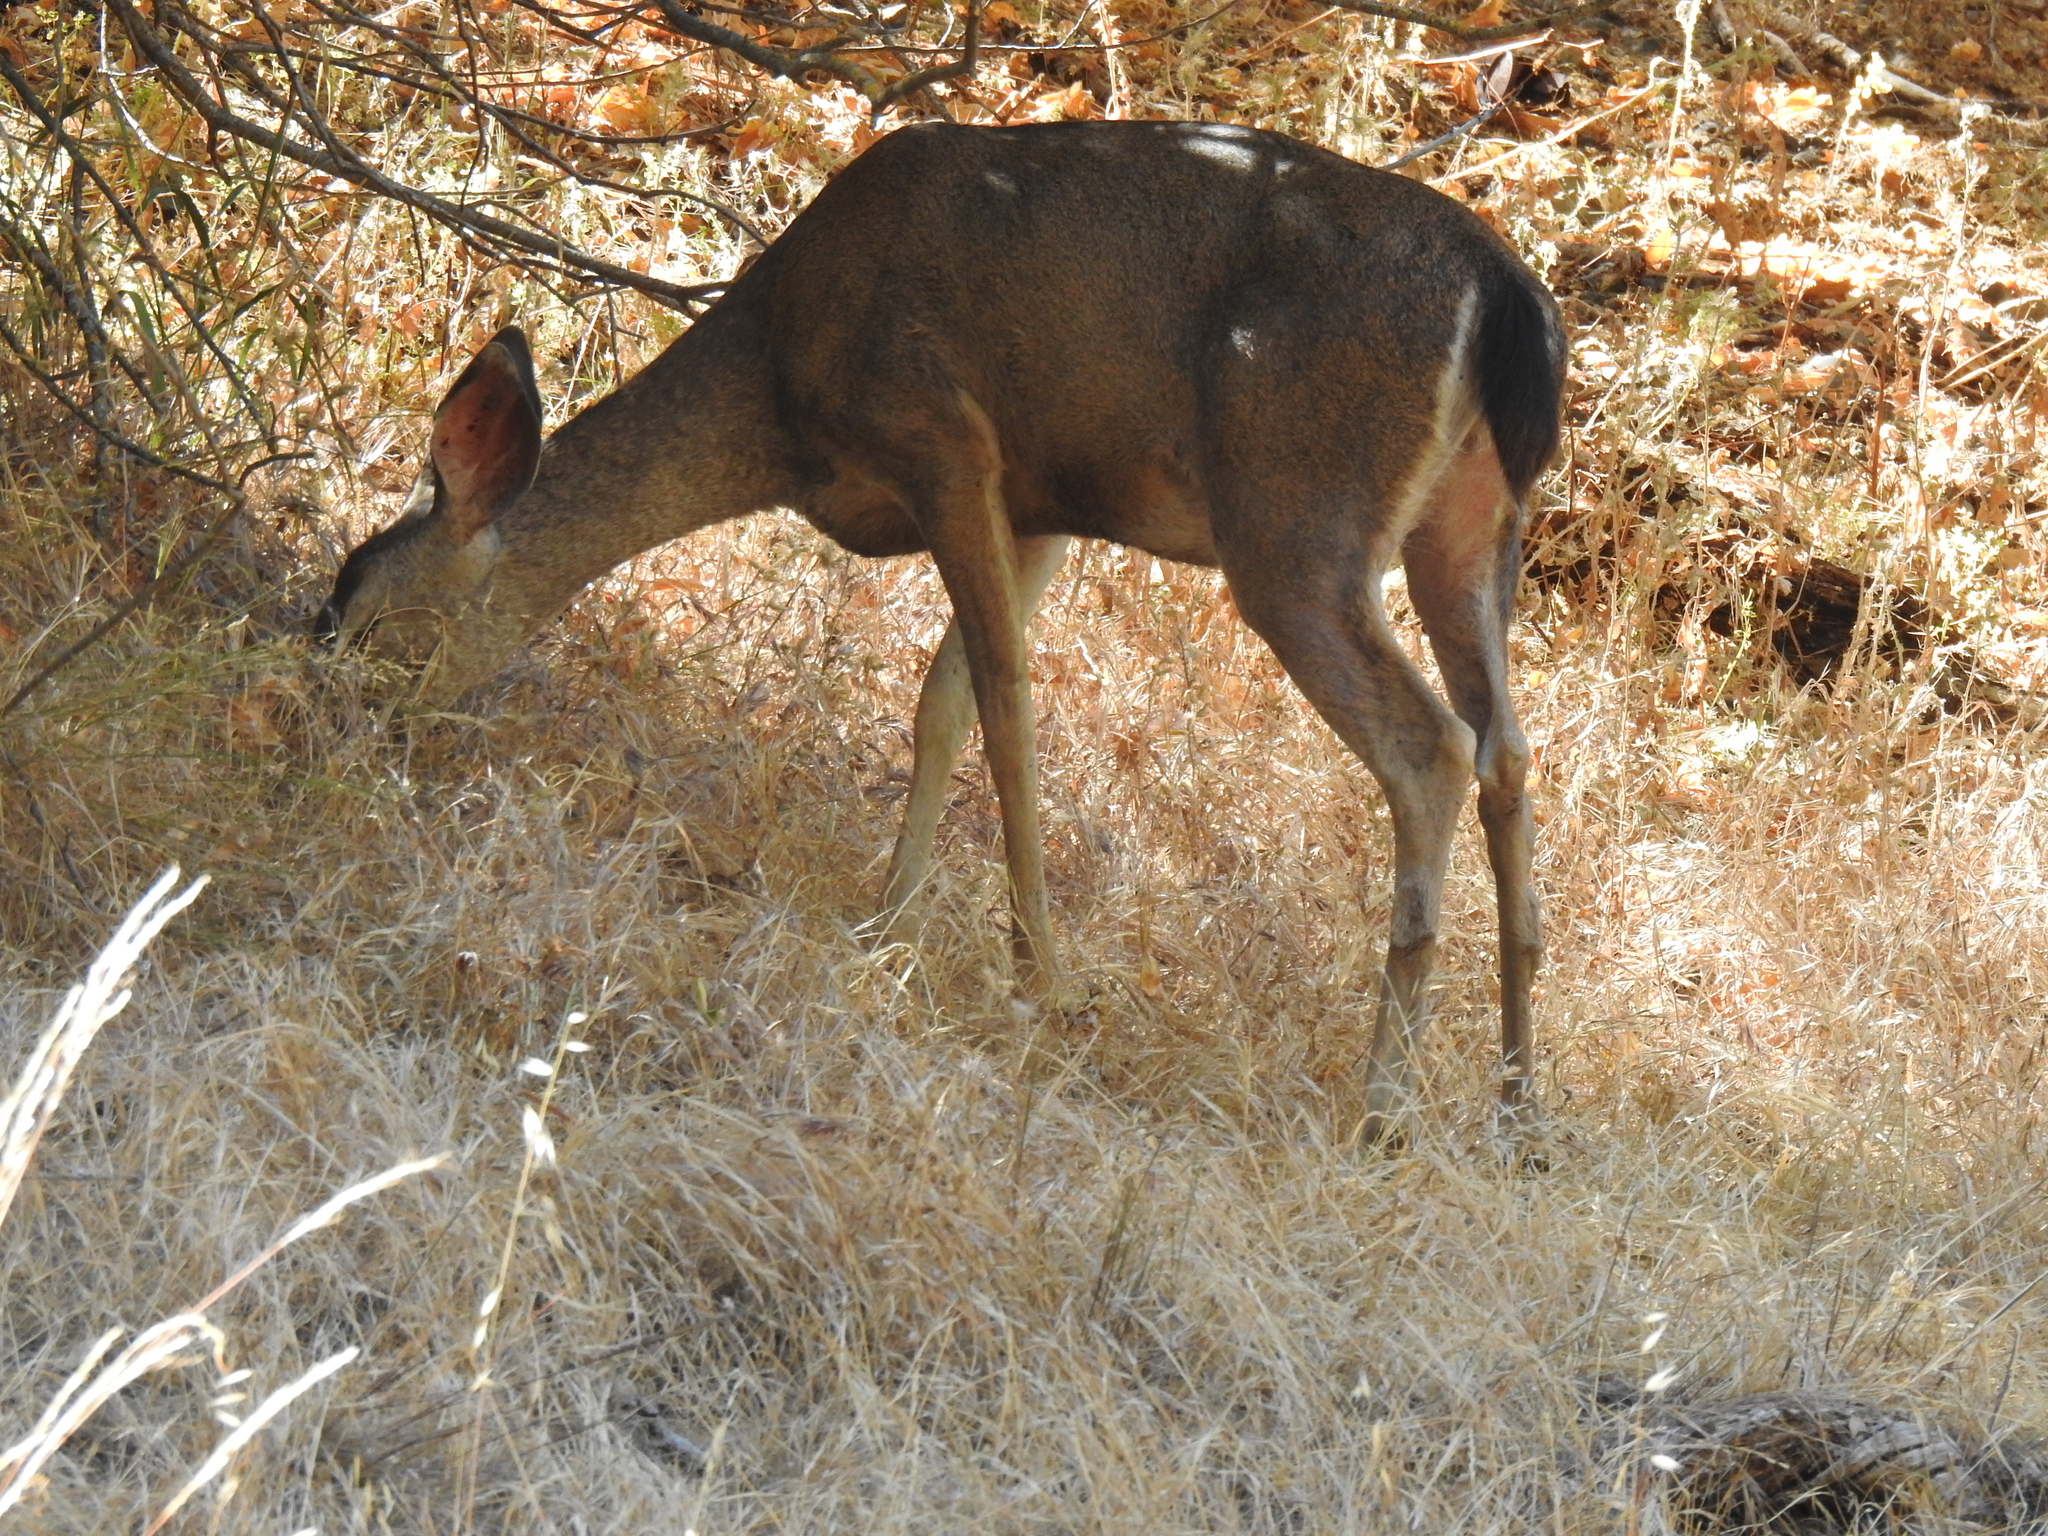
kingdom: Animalia
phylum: Chordata
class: Mammalia
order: Artiodactyla
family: Cervidae
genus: Odocoileus
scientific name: Odocoileus hemionus
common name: Mule deer
